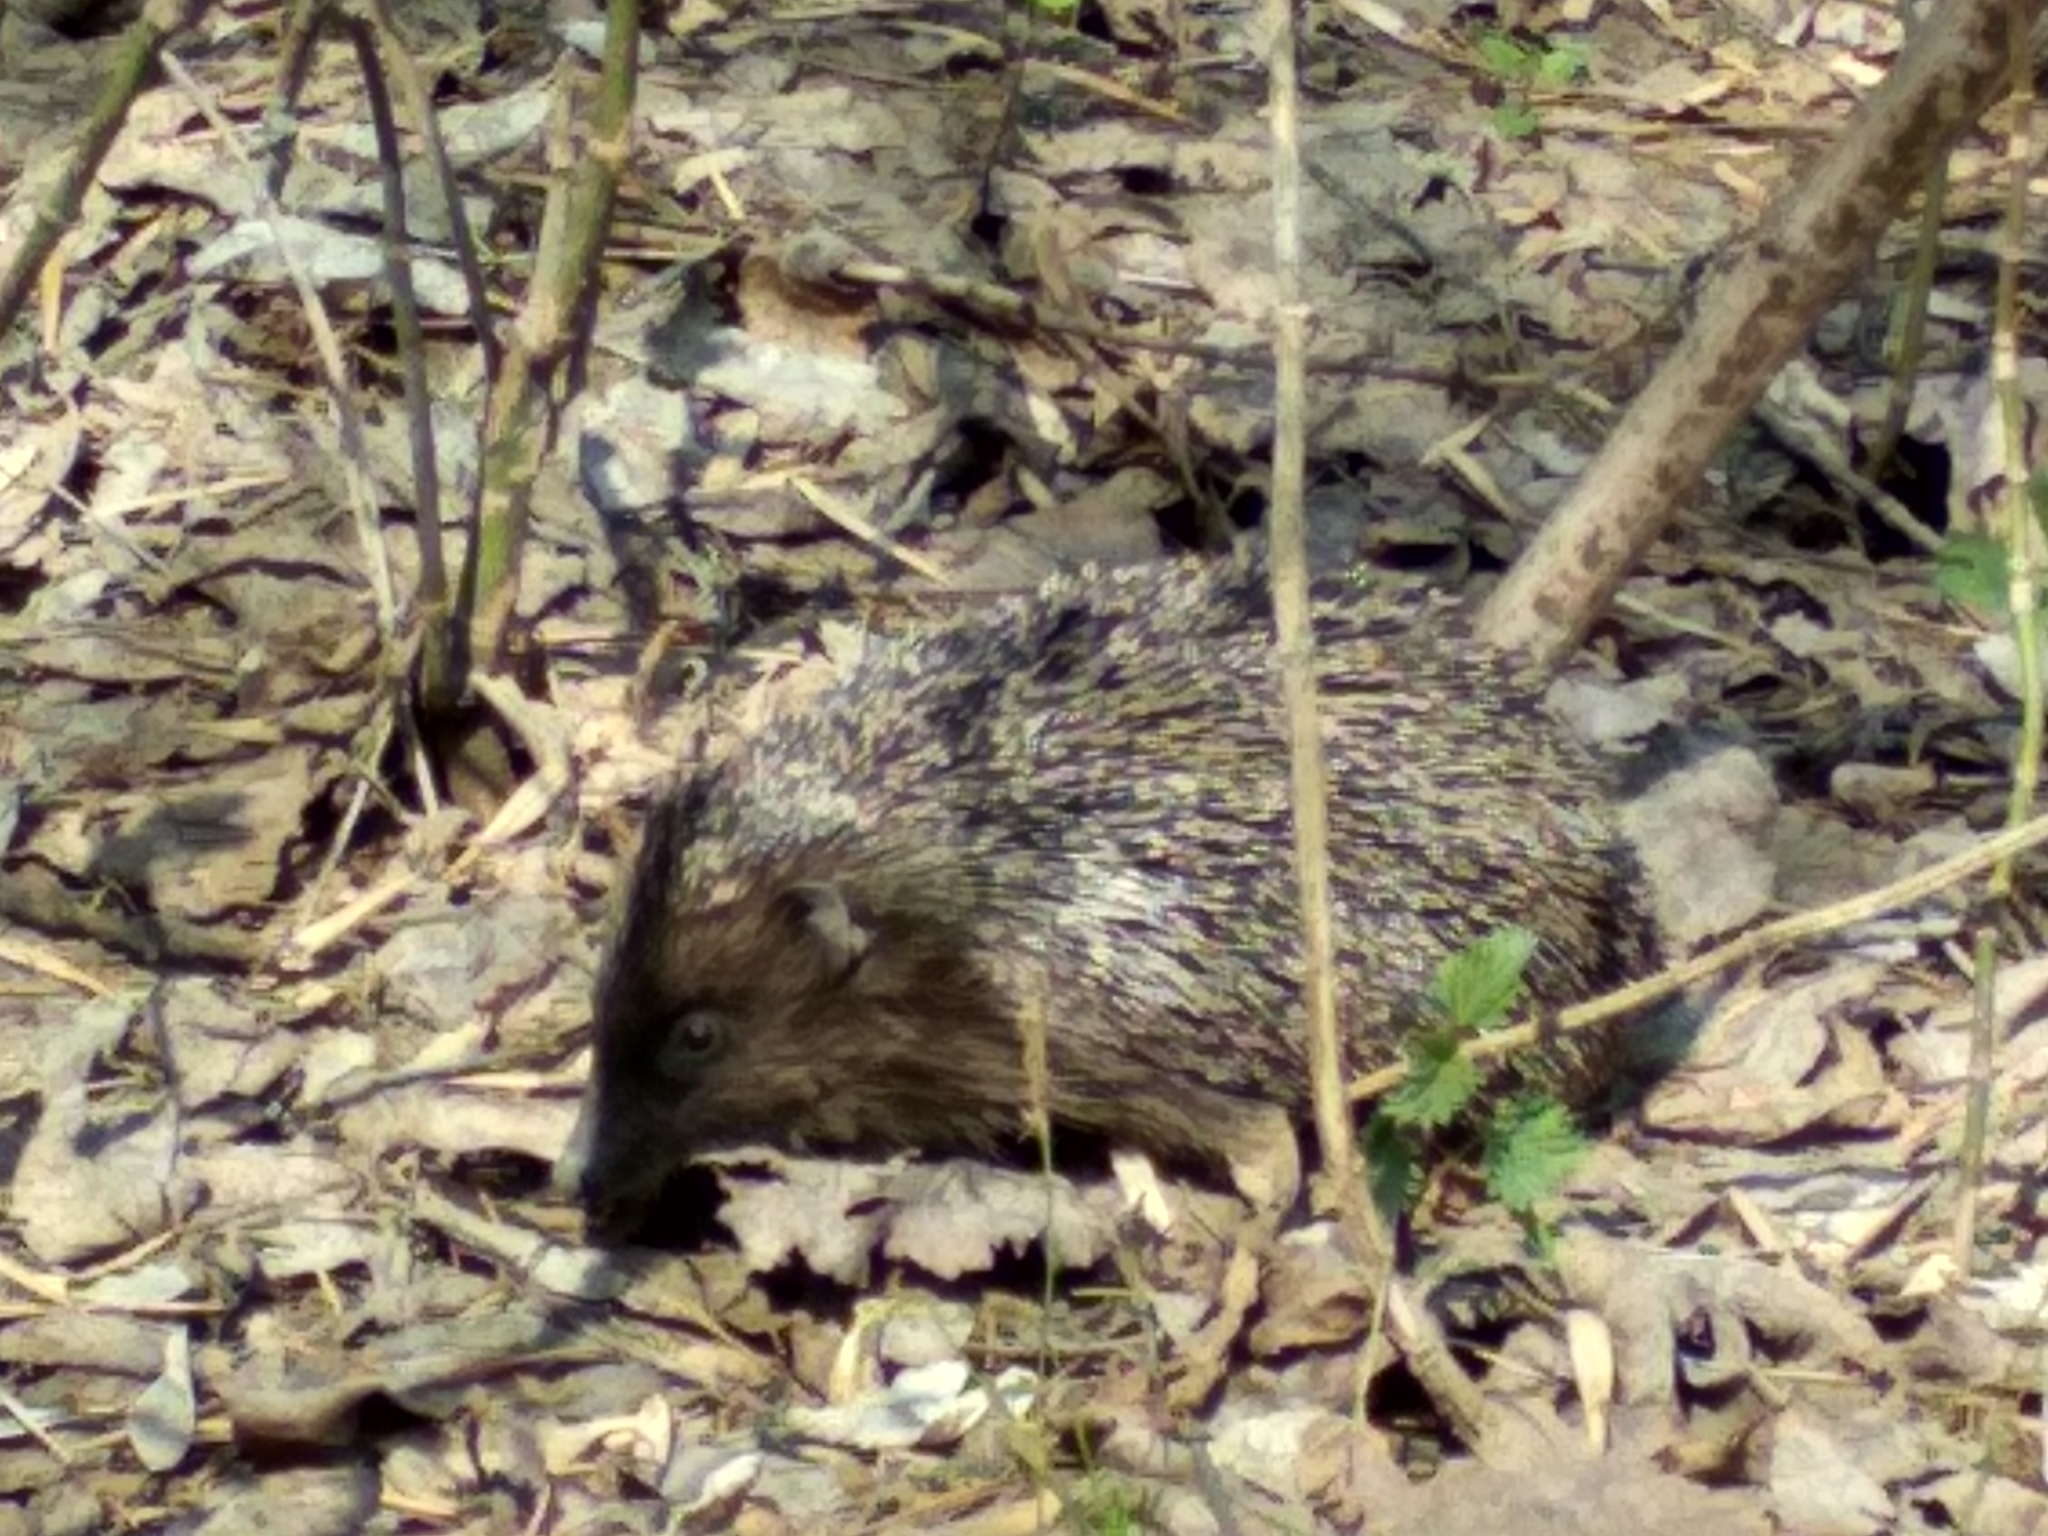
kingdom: Animalia
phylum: Chordata
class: Mammalia
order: Erinaceomorpha
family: Erinaceidae
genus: Erinaceus
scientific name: Erinaceus roumanicus
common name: Northern white-breasted hedgehog
